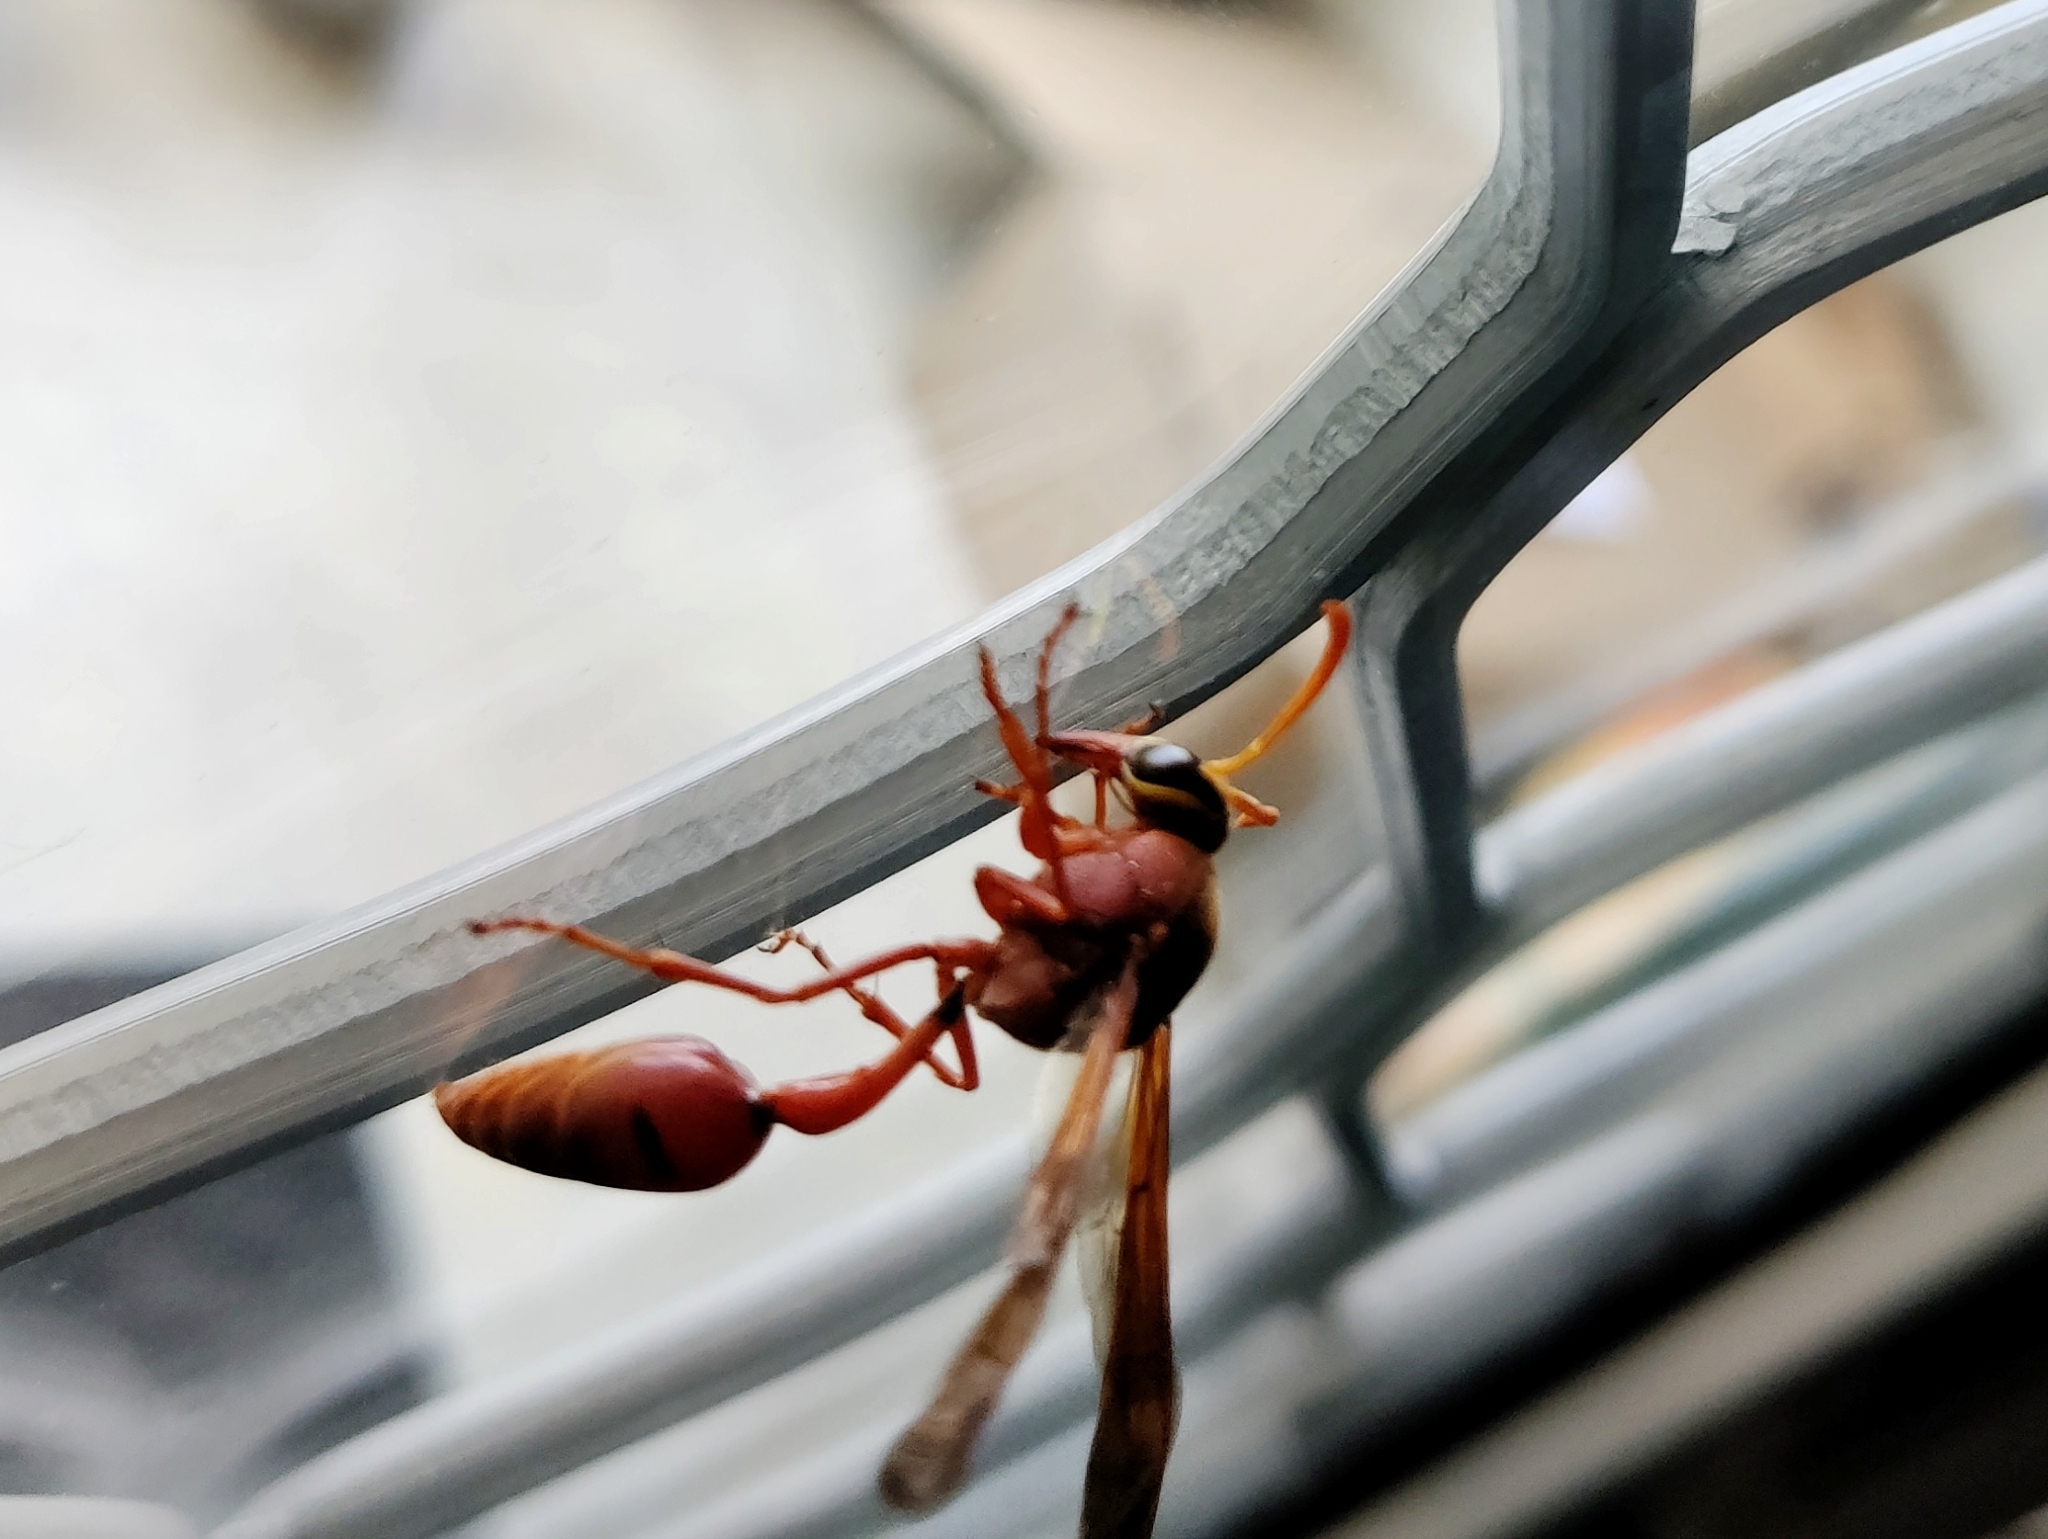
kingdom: Animalia
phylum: Arthropoda
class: Insecta
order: Hymenoptera
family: Eumenidae
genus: Delta
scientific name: Delta conoideum
